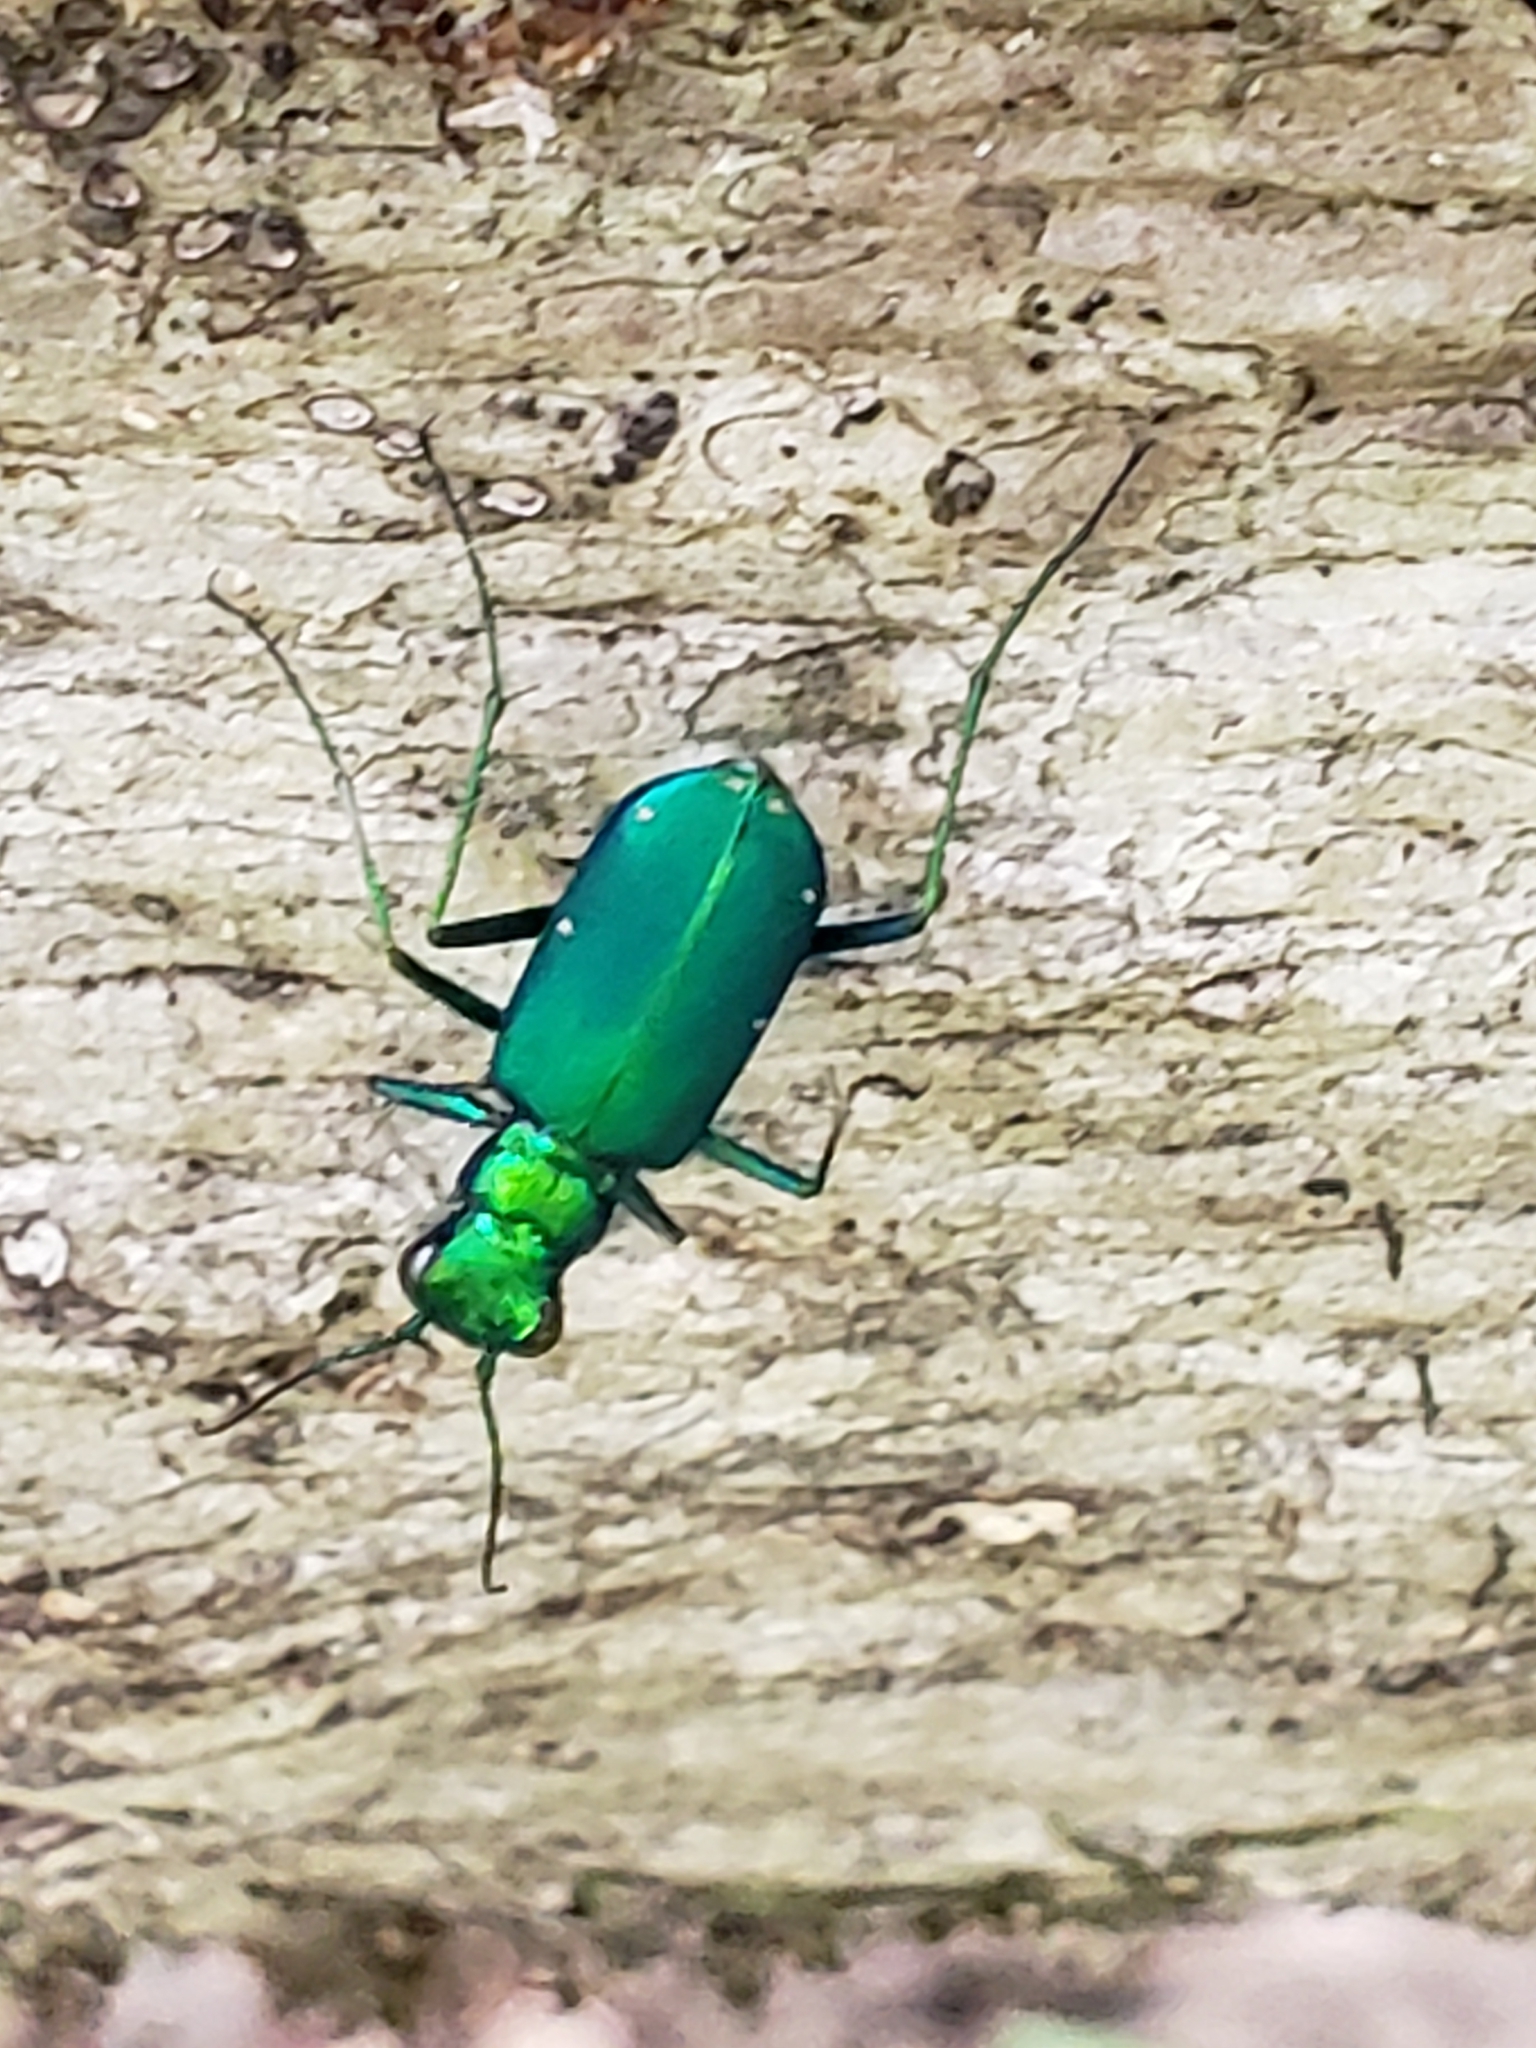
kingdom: Animalia
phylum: Arthropoda
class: Insecta
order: Coleoptera
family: Carabidae
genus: Cicindela
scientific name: Cicindela sexguttata
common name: Six-spotted tiger beetle
